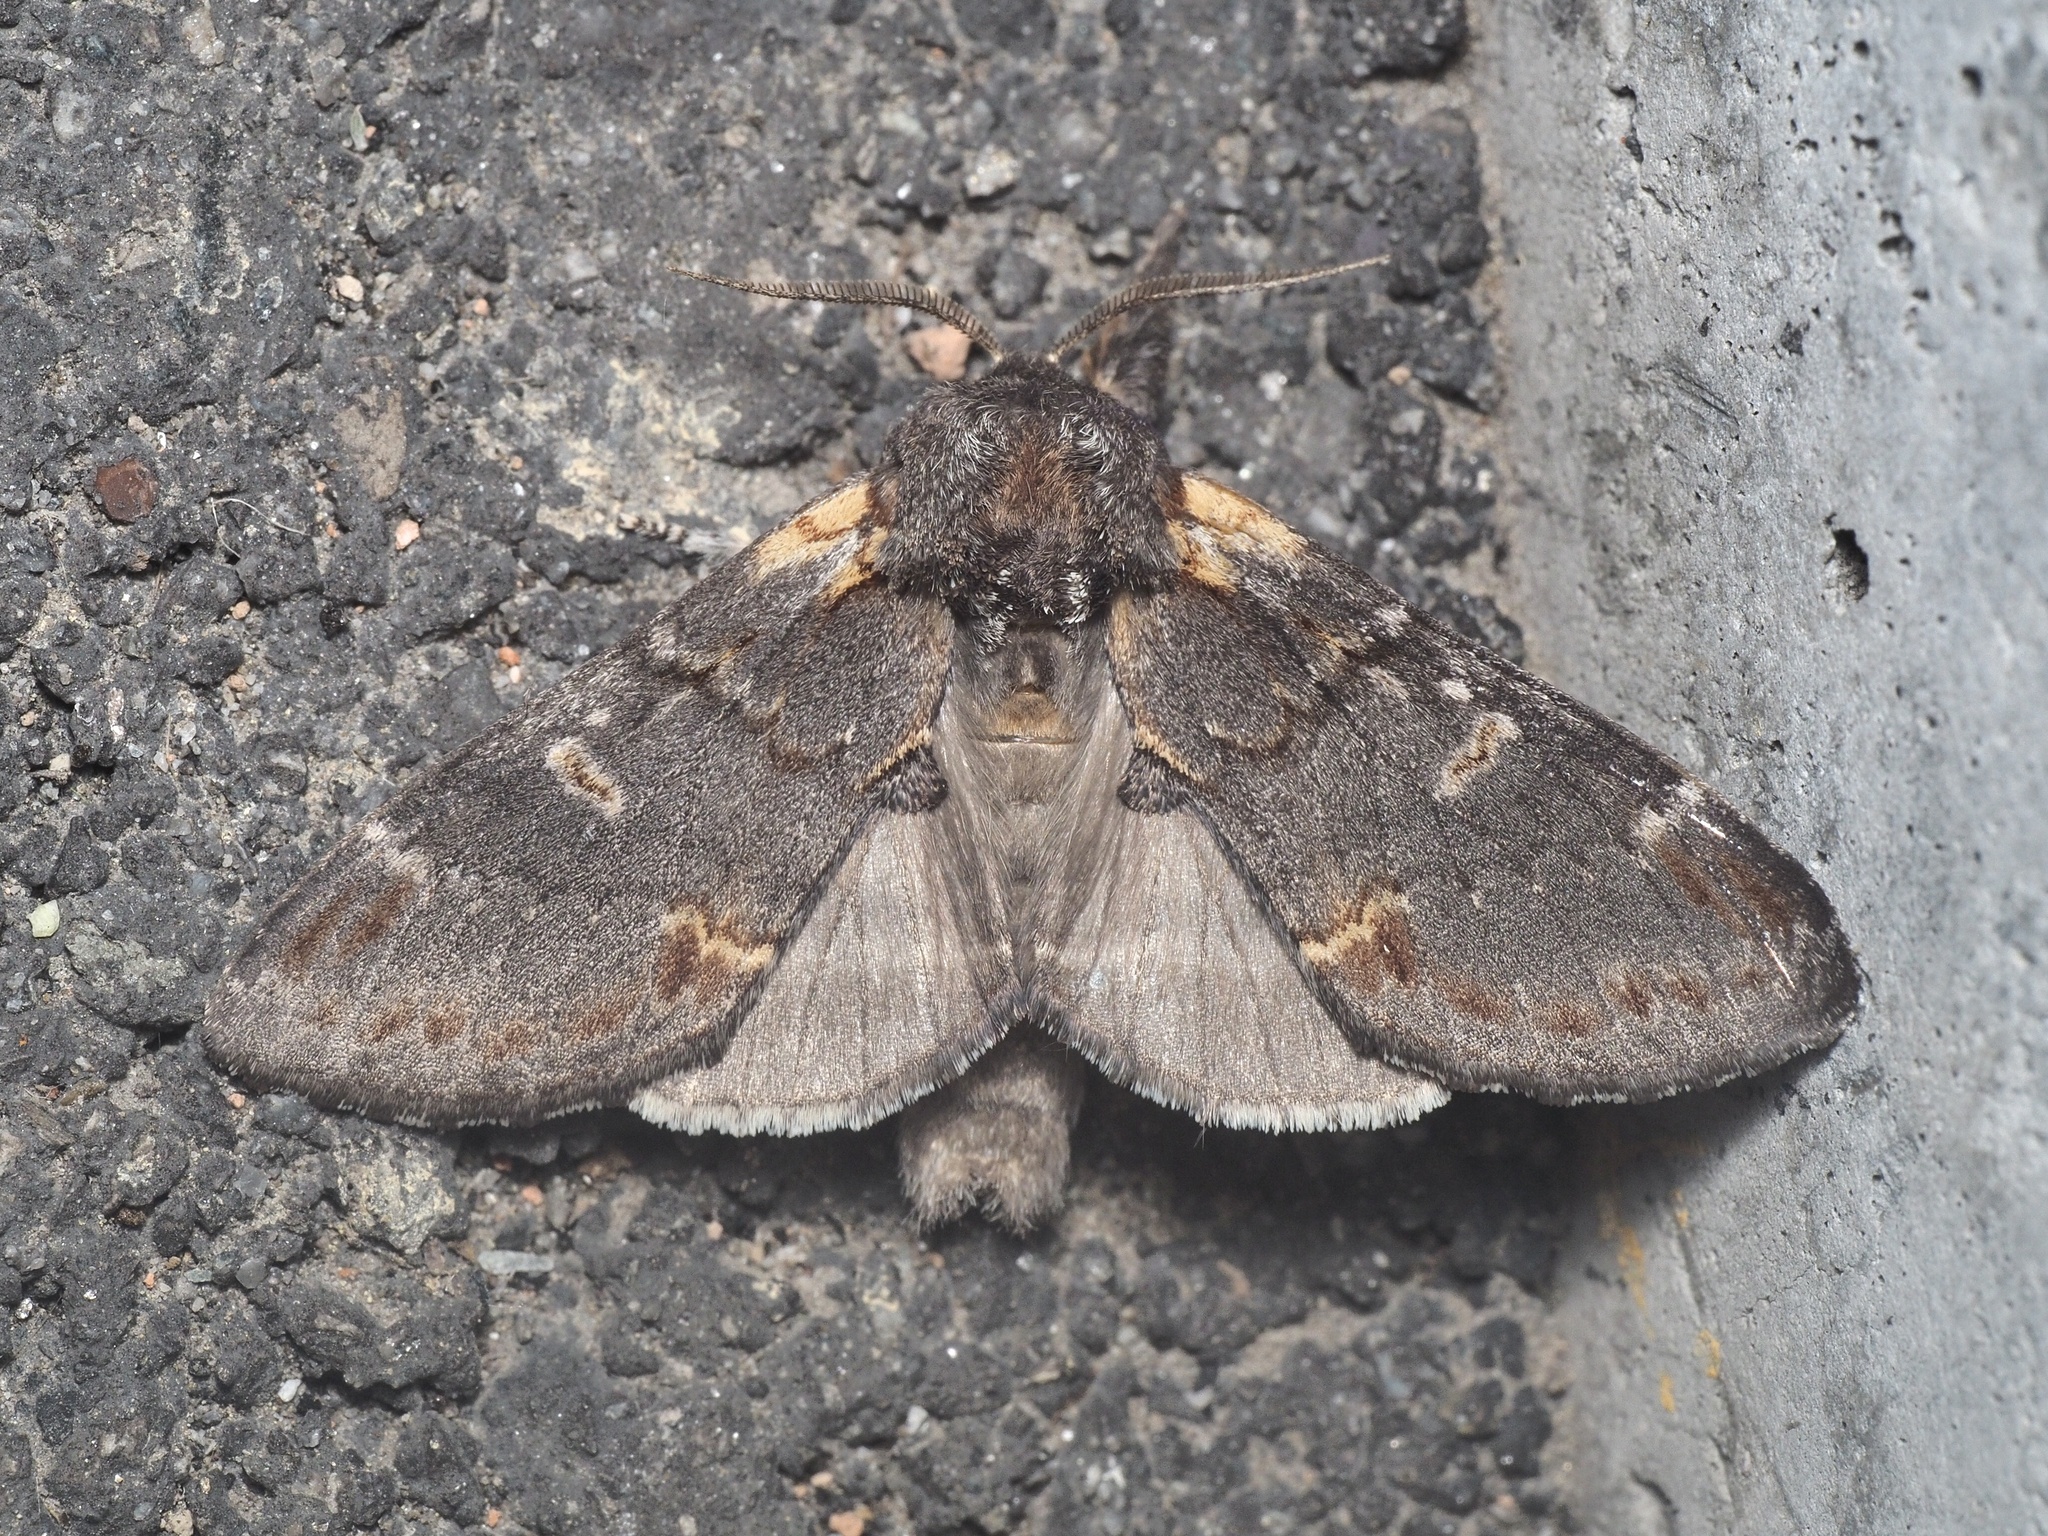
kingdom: Animalia
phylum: Arthropoda
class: Insecta
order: Lepidoptera
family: Notodontidae
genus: Notodonta
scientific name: Notodonta dromedarius
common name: Iron prominent
